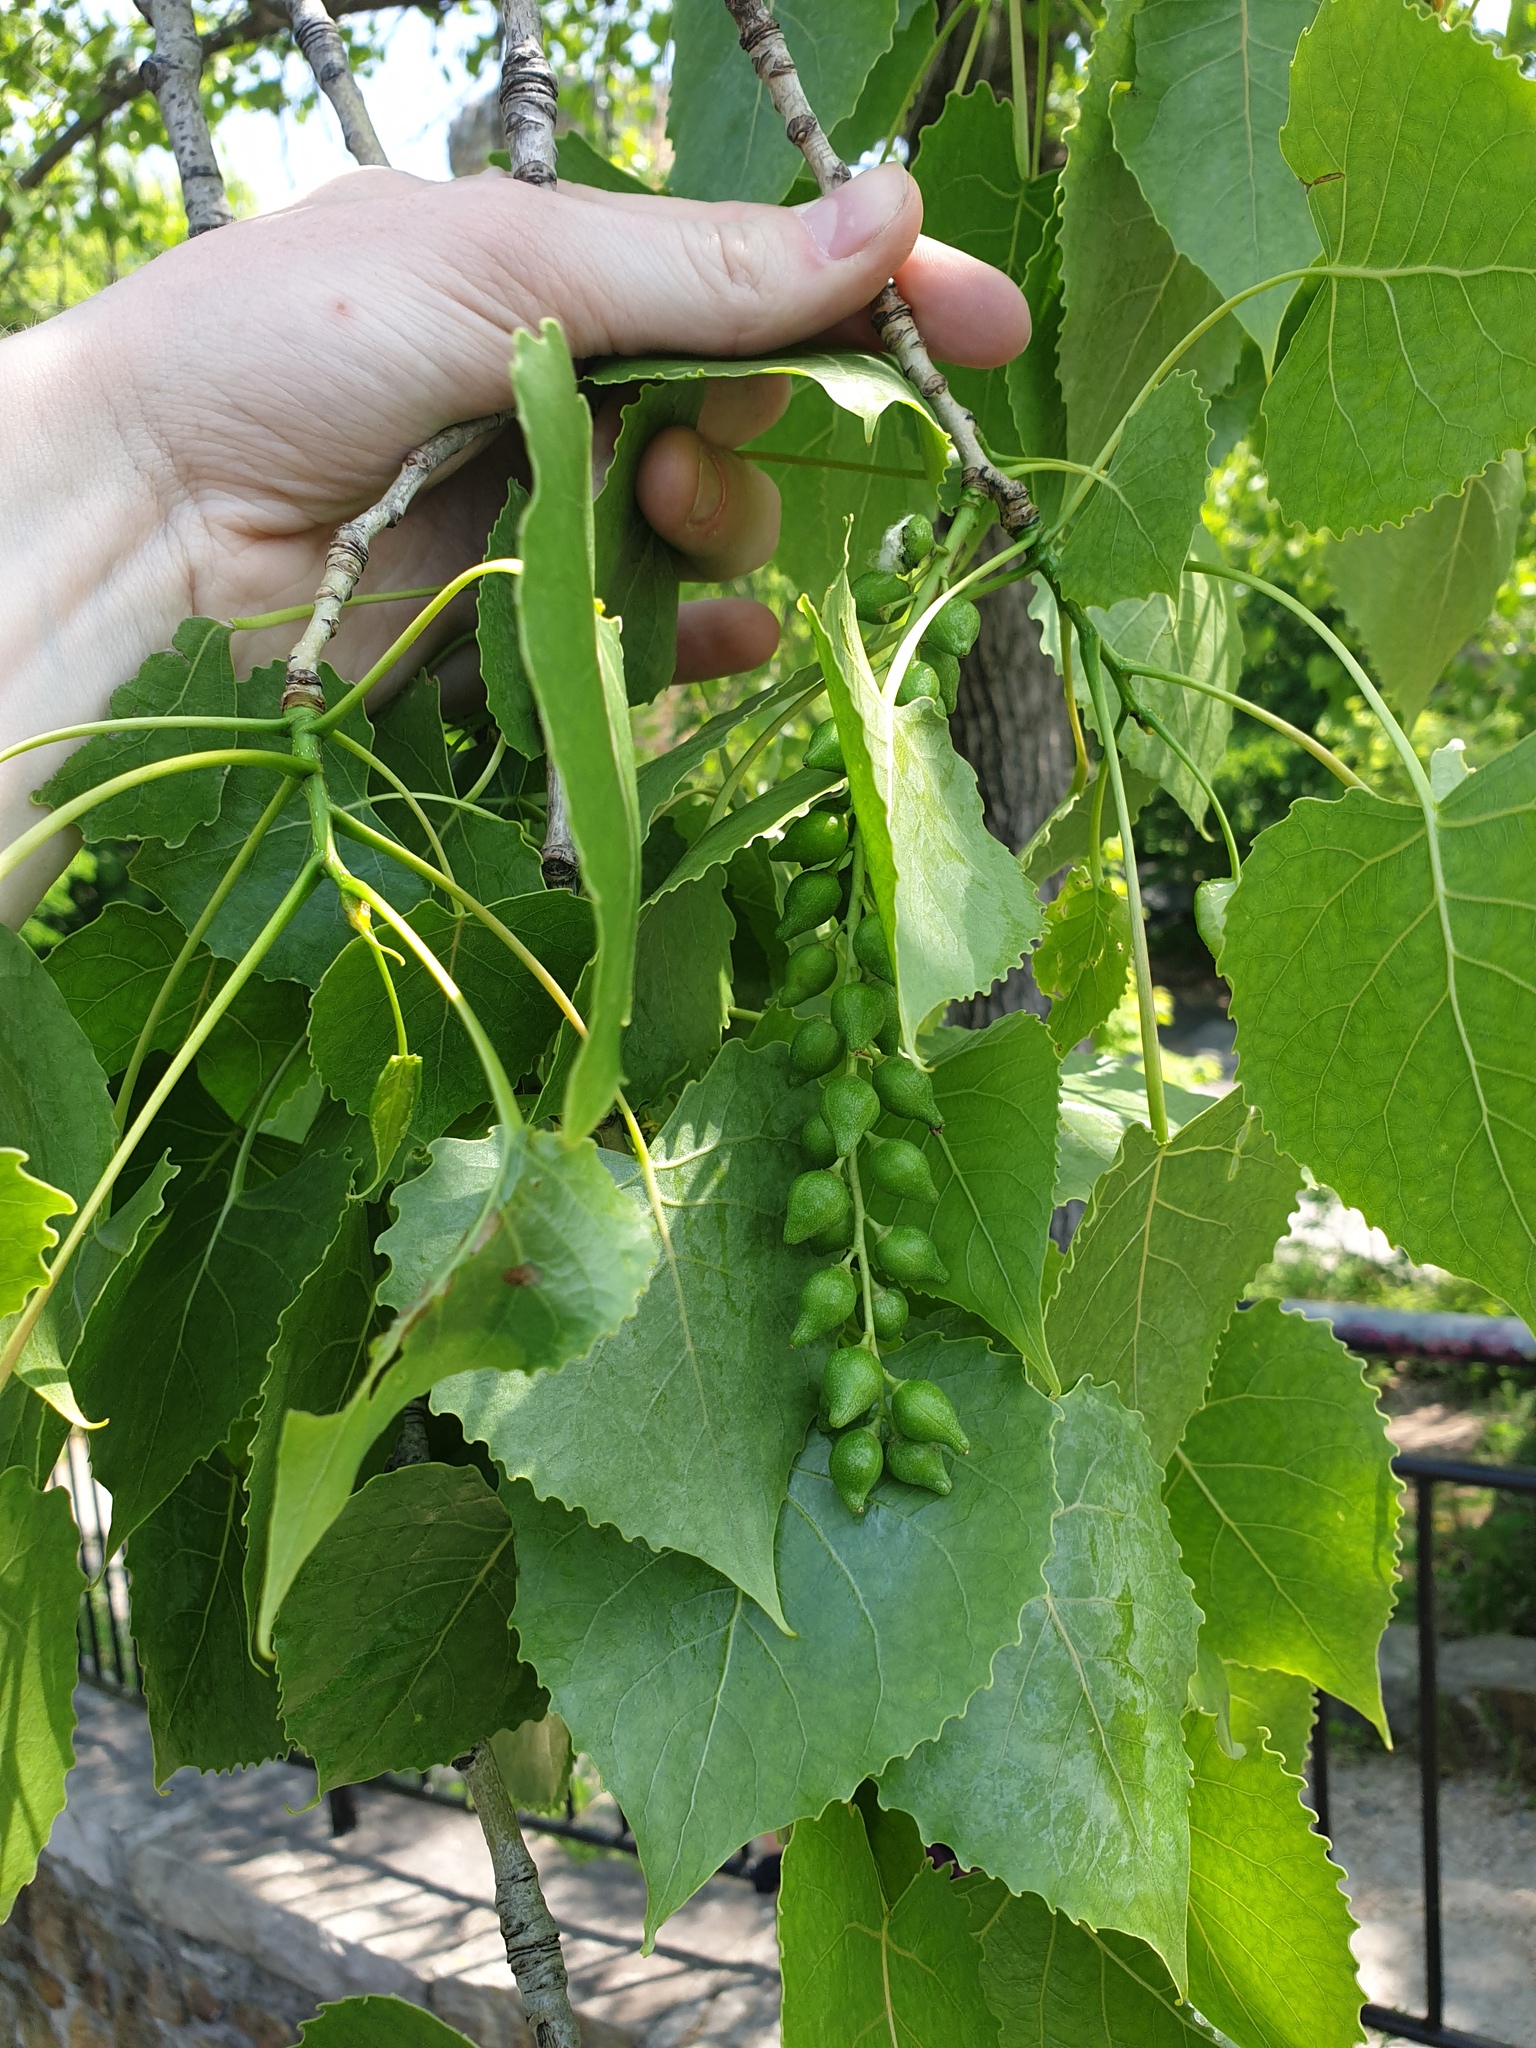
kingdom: Plantae
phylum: Tracheophyta
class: Magnoliopsida
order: Malpighiales
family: Salicaceae
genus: Populus
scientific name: Populus deltoides
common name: Eastern cottonwood
